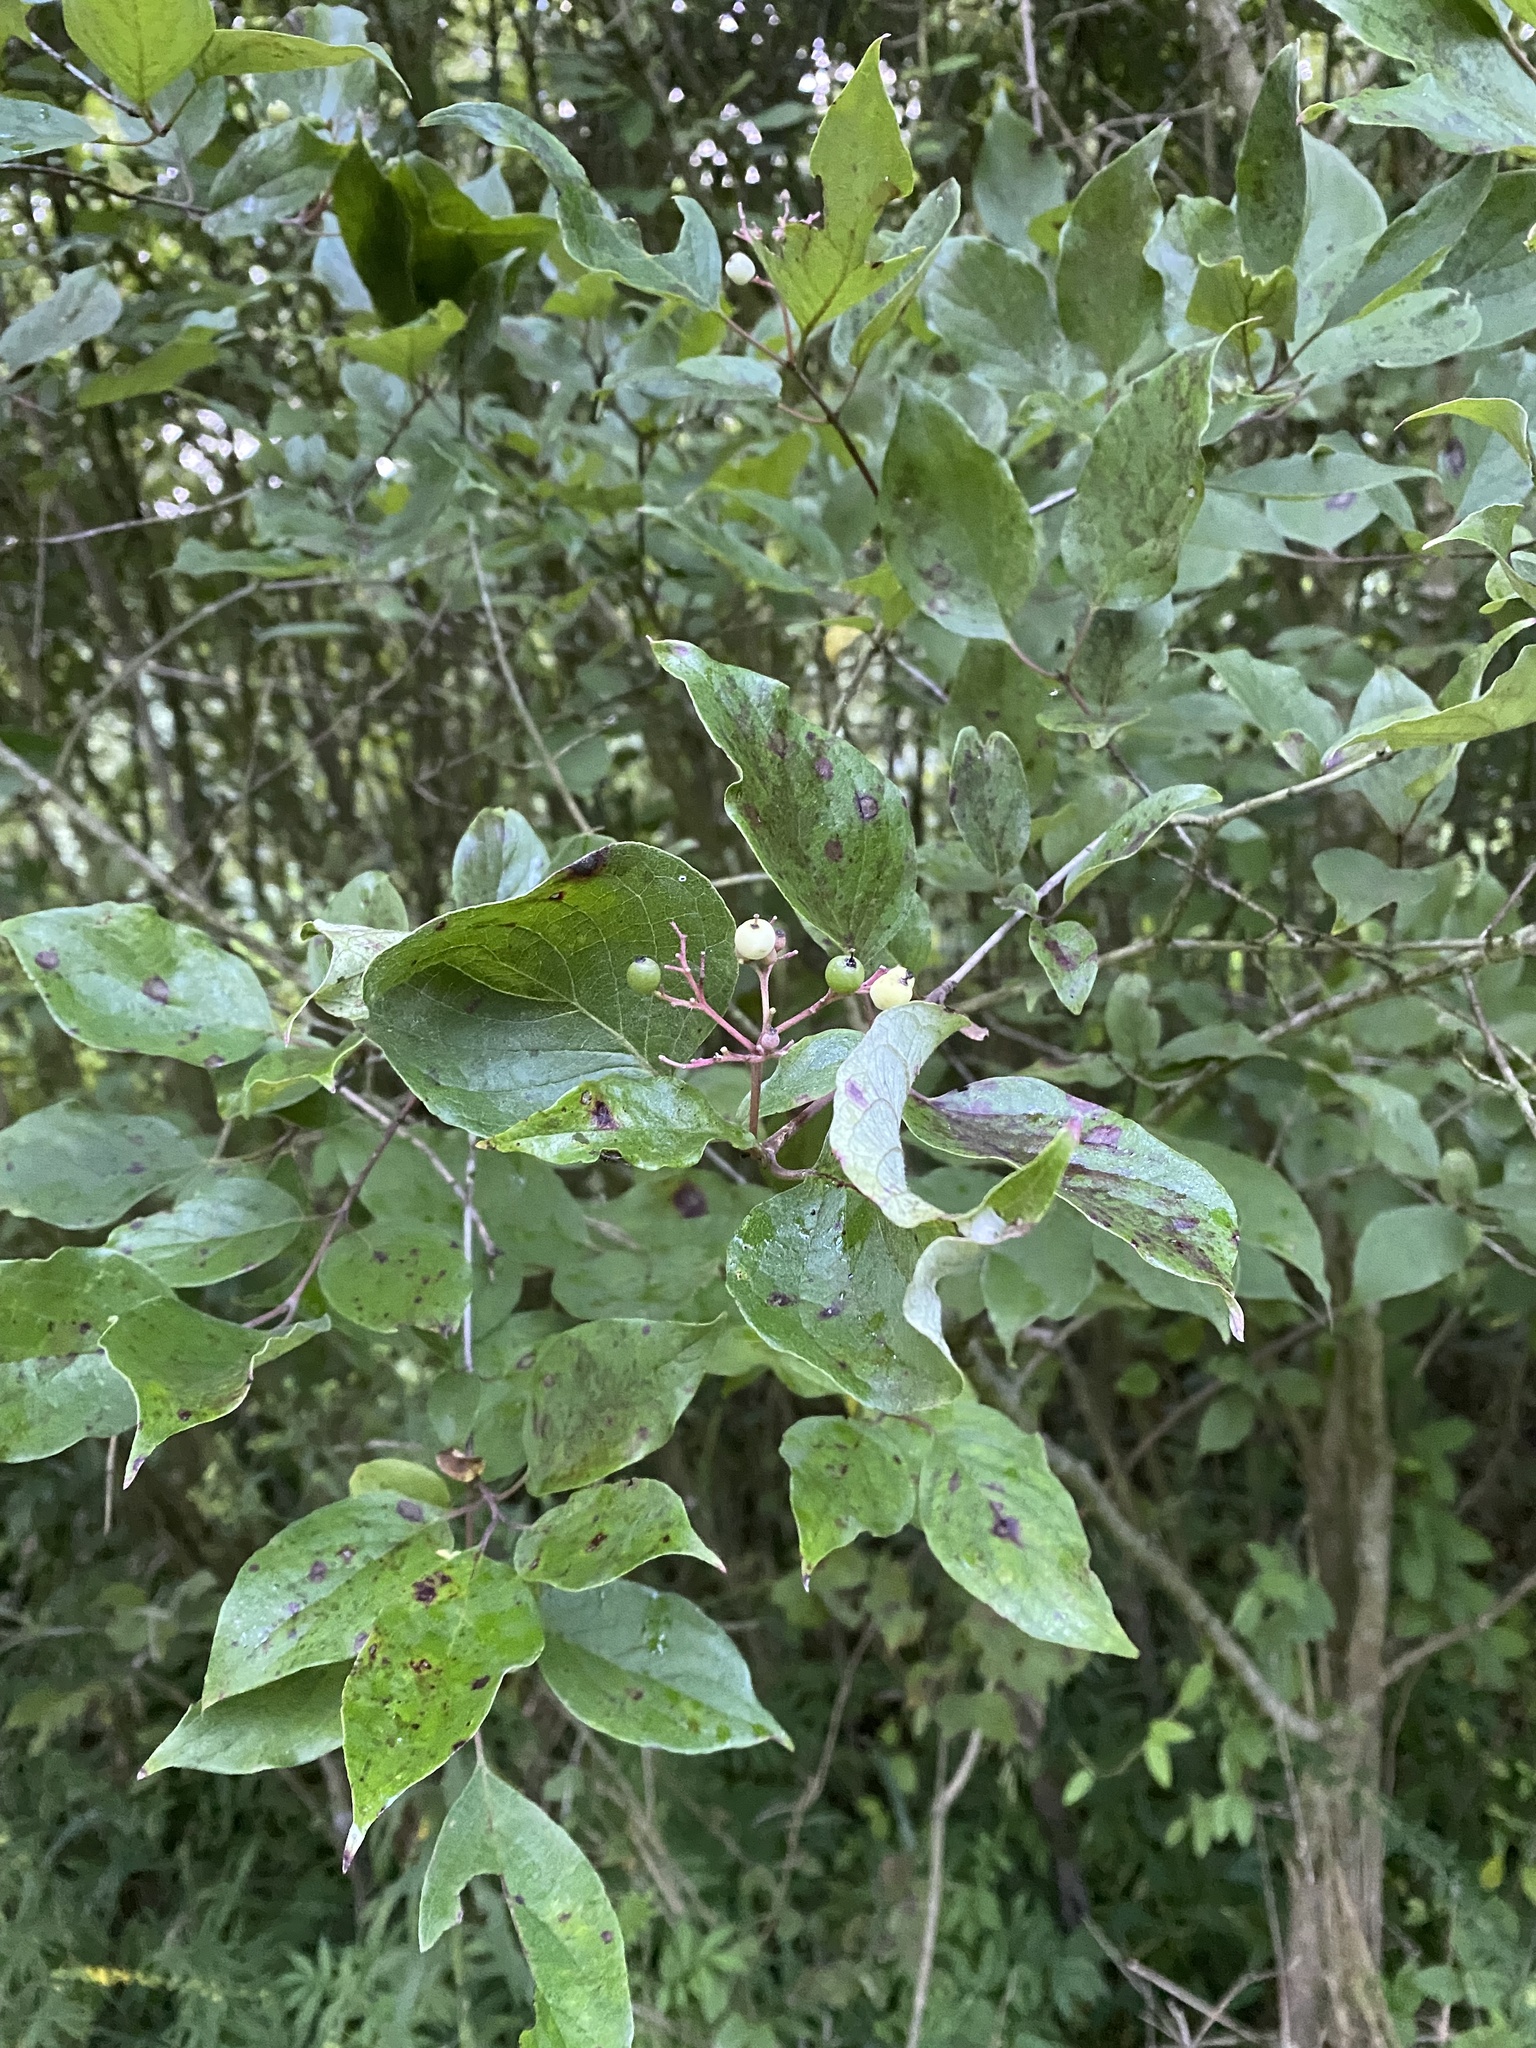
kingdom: Plantae
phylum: Tracheophyta
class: Magnoliopsida
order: Cornales
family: Cornaceae
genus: Cornus
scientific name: Cornus drummondii
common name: Rough-leaf dogwood
